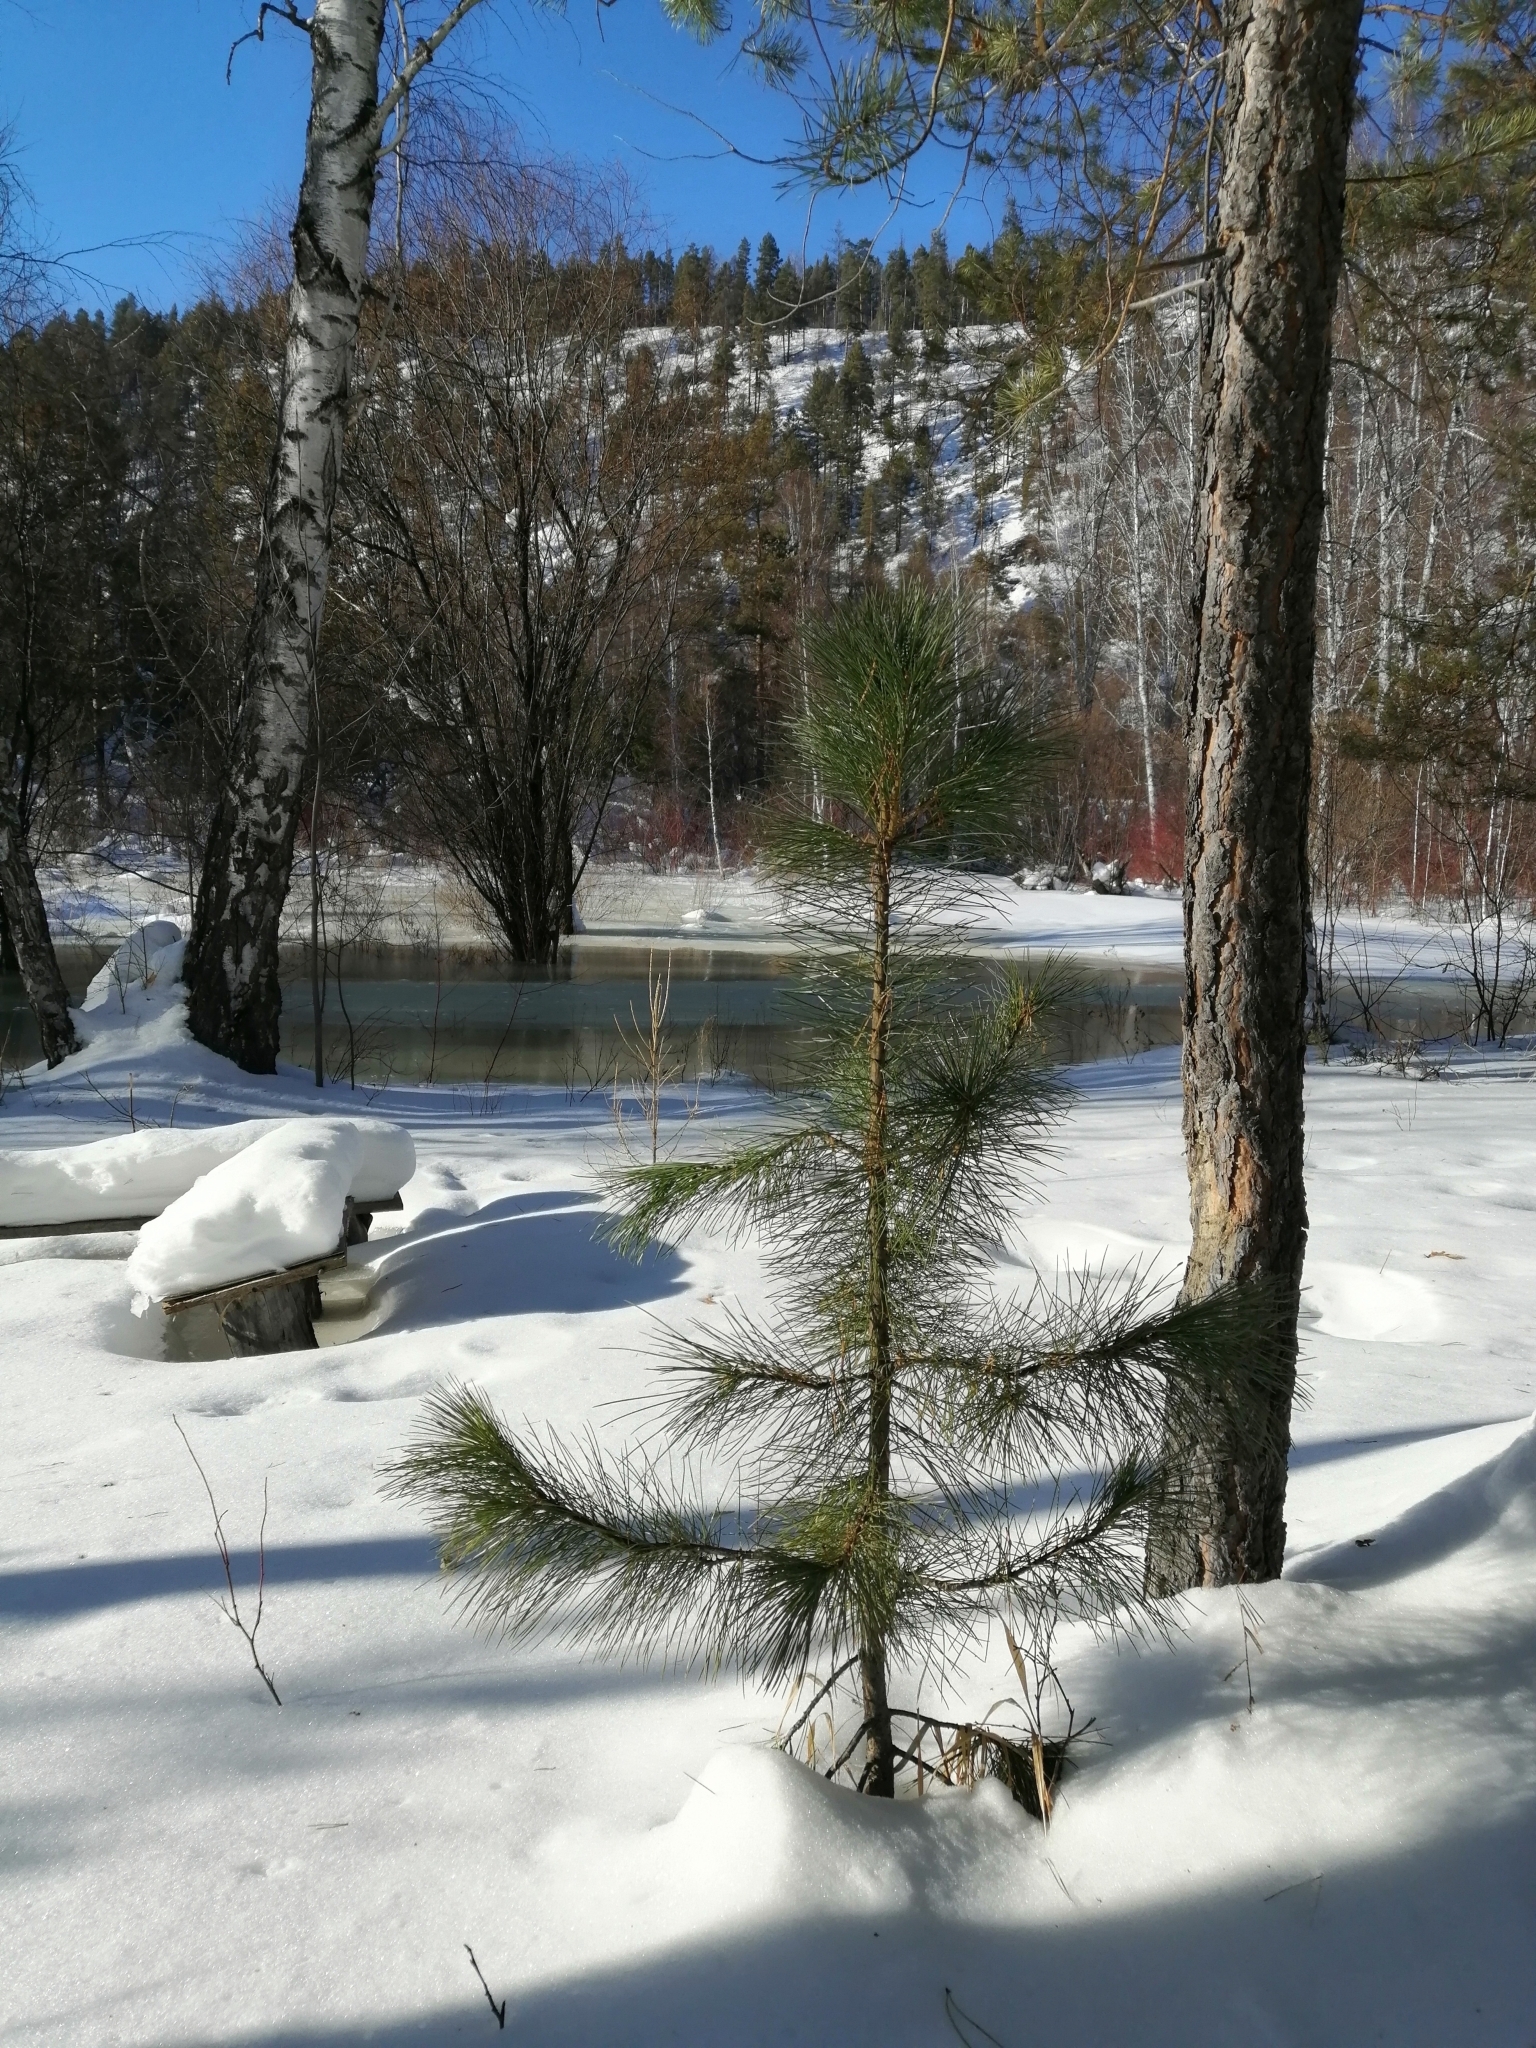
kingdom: Plantae
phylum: Tracheophyta
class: Pinopsida
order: Pinales
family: Pinaceae
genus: Pinus
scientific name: Pinus sibirica
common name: Siberian pine
